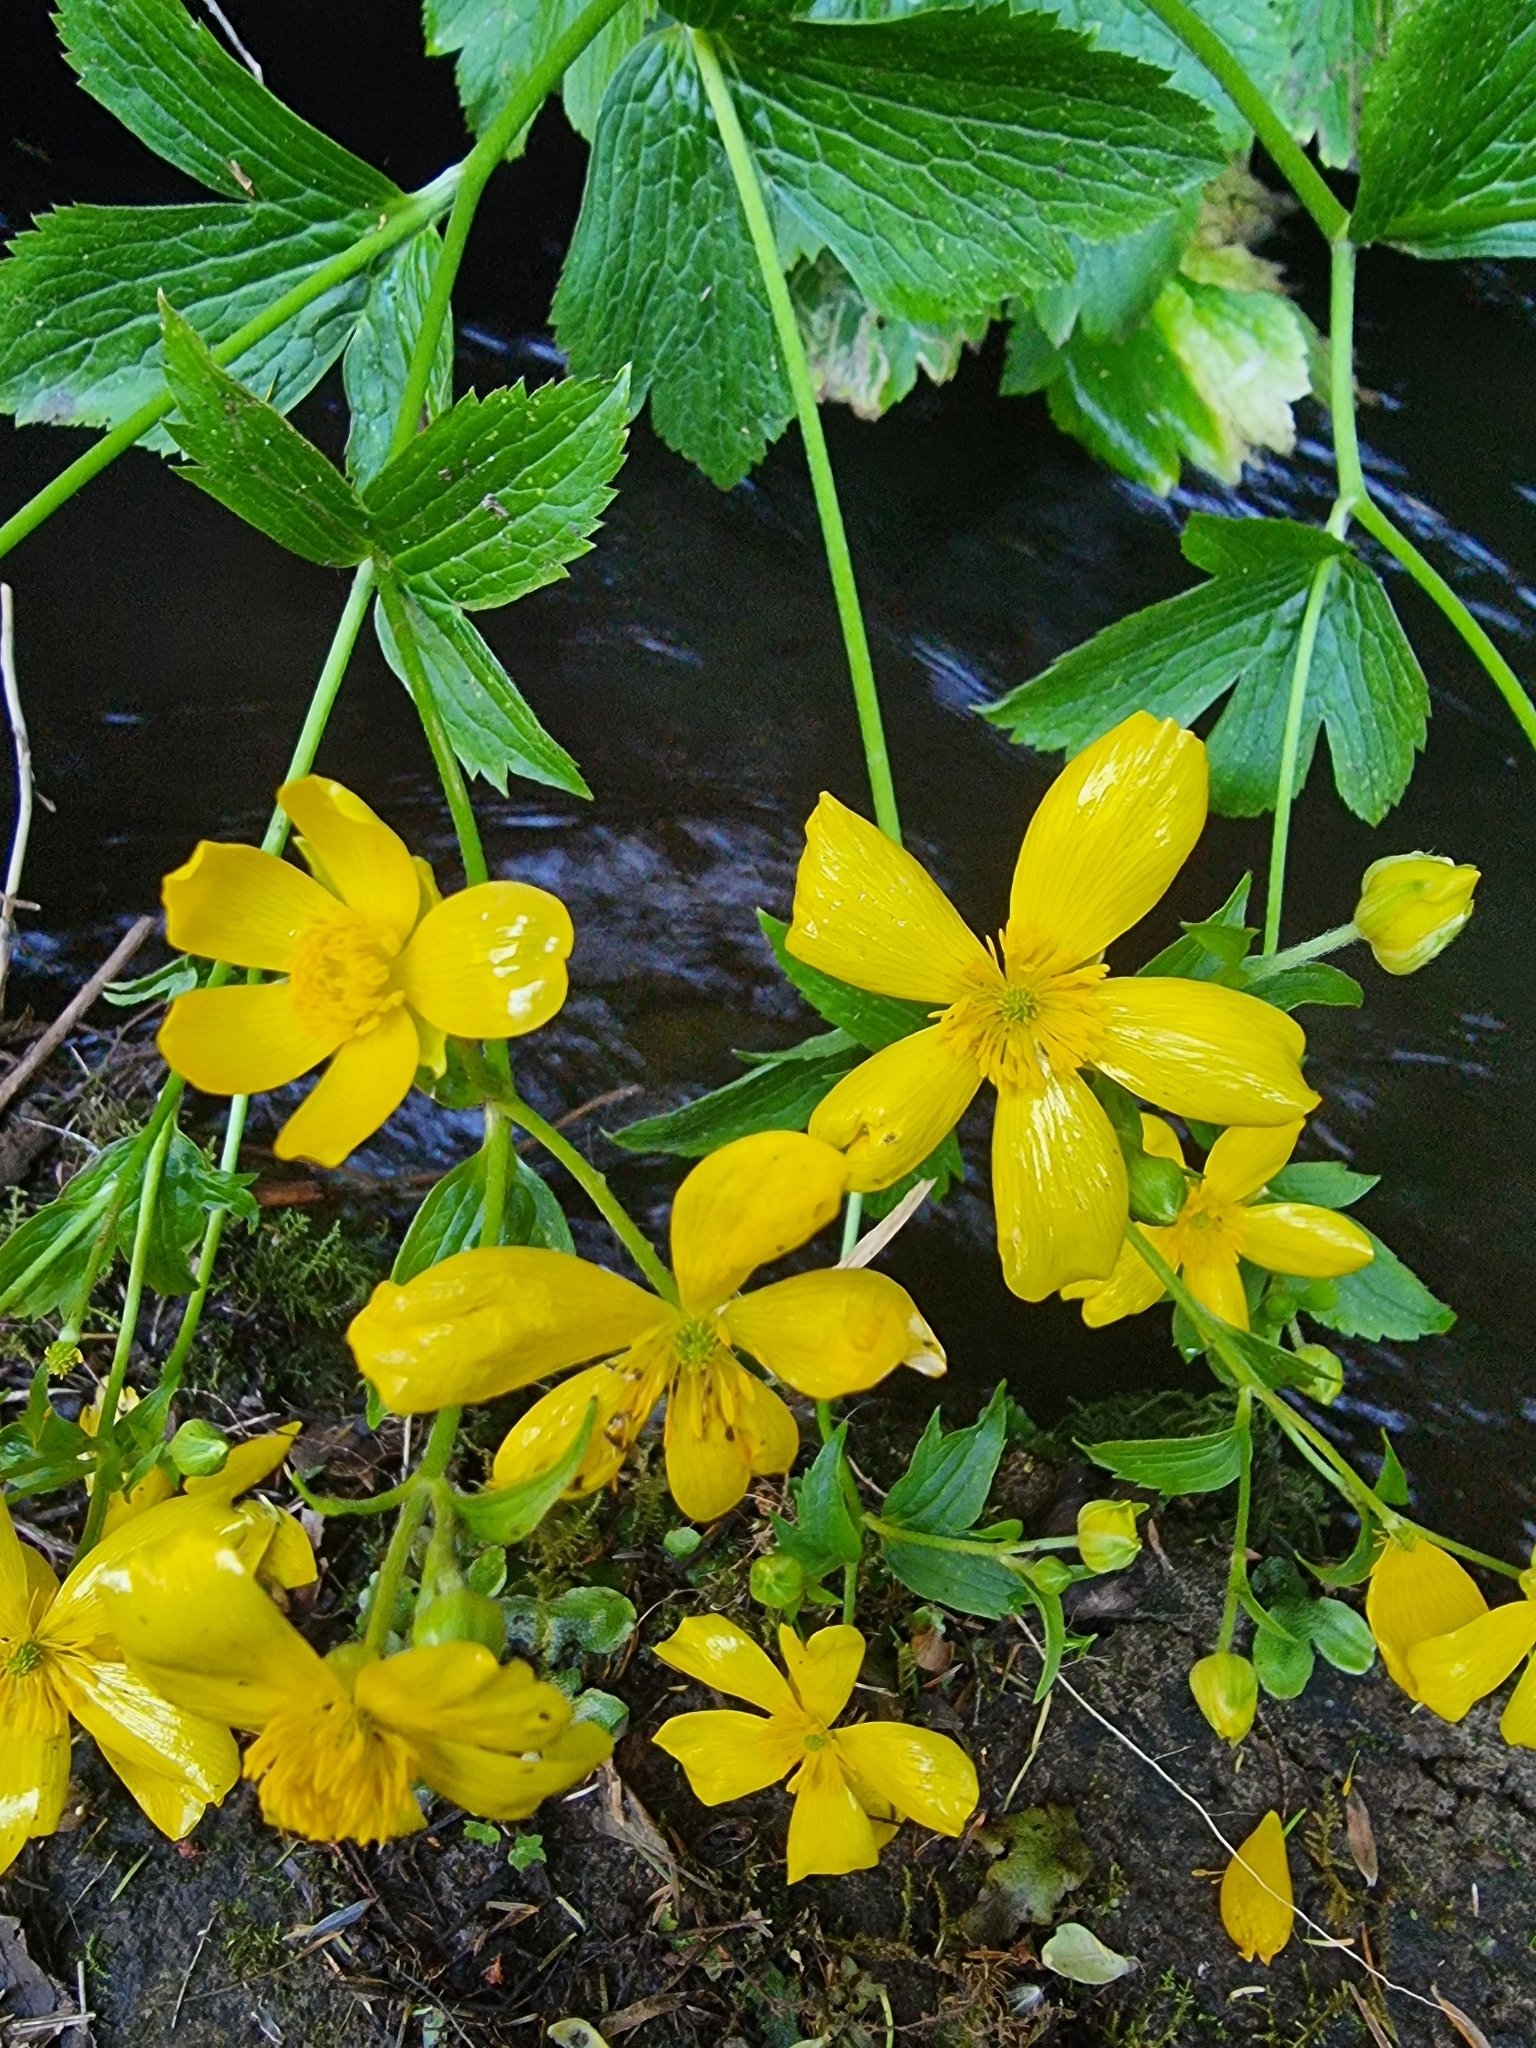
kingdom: Plantae
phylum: Tracheophyta
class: Magnoliopsida
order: Ranunculales
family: Ranunculaceae
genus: Ranunculus
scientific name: Ranunculus cortusifolius
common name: Azores buttercup
